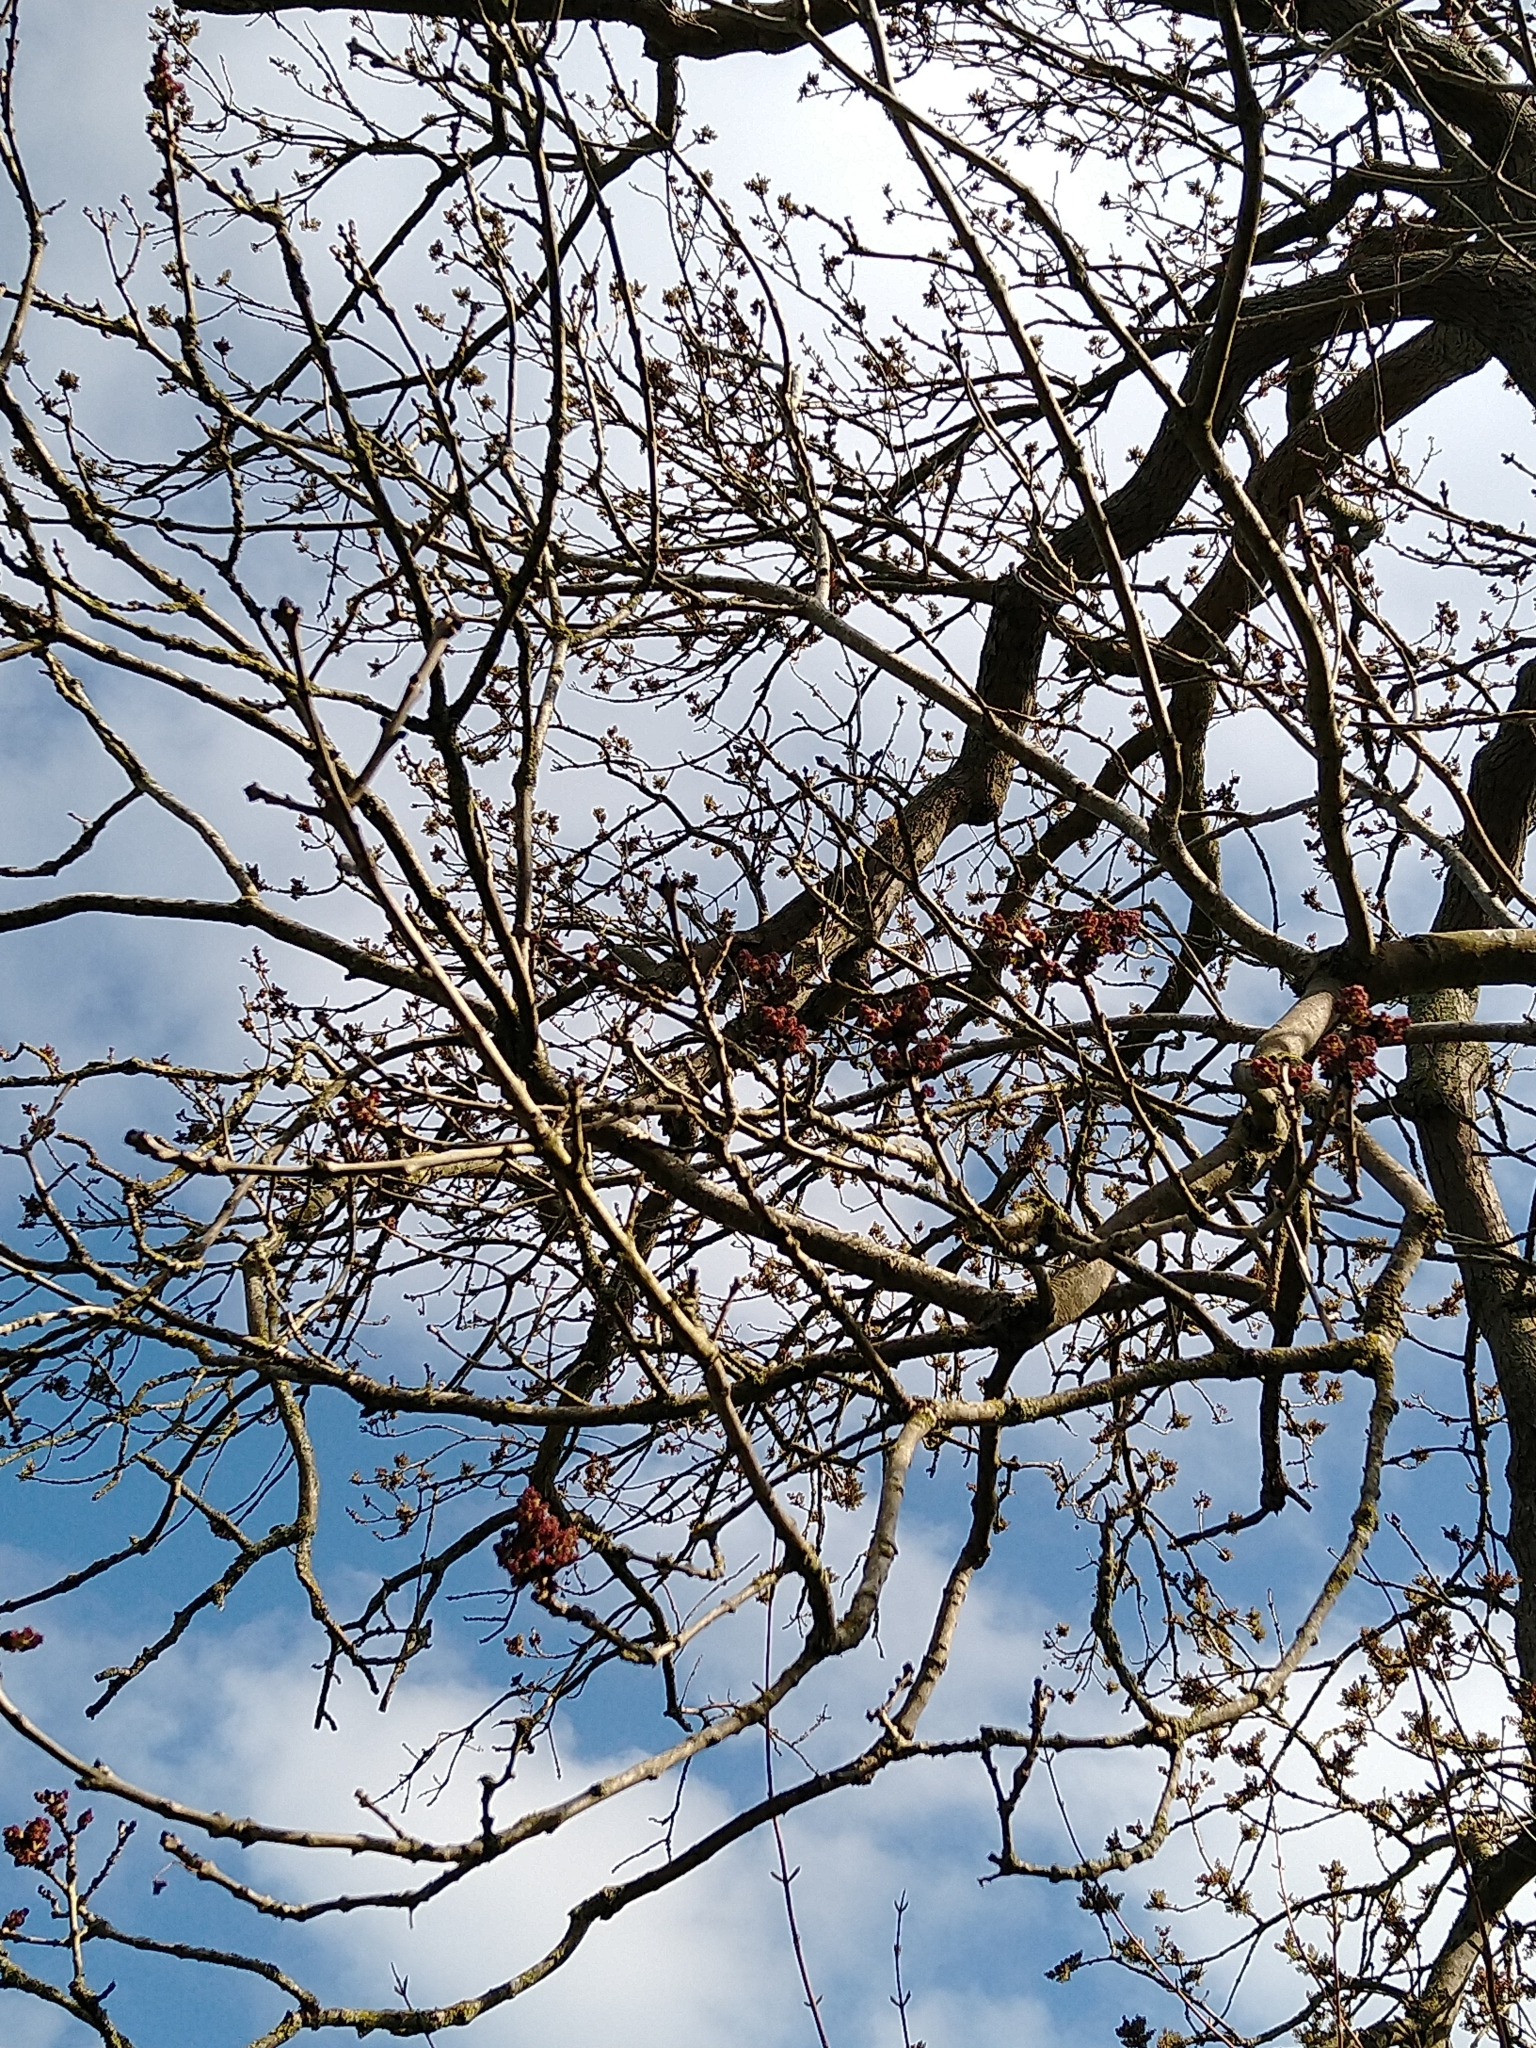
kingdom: Plantae
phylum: Tracheophyta
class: Magnoliopsida
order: Lamiales
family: Oleaceae
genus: Fraxinus
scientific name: Fraxinus excelsior
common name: European ash
